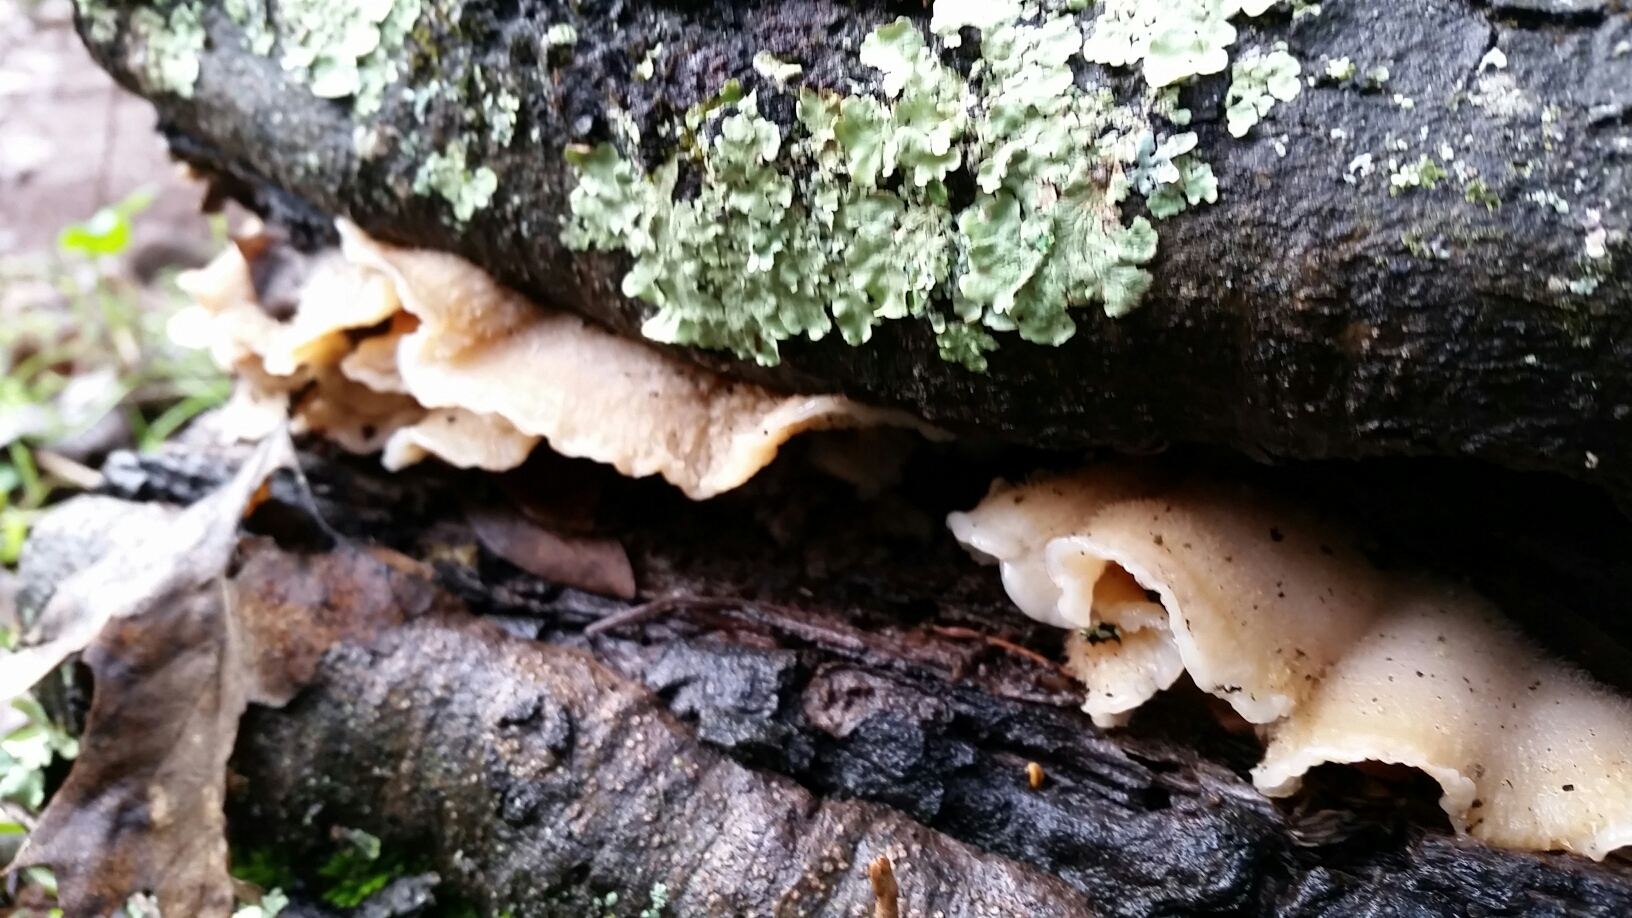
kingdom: Fungi
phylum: Basidiomycota
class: Agaricomycetes
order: Polyporales
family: Meruliaceae
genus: Phlebia
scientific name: Phlebia tremellosa
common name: Jelly rot
